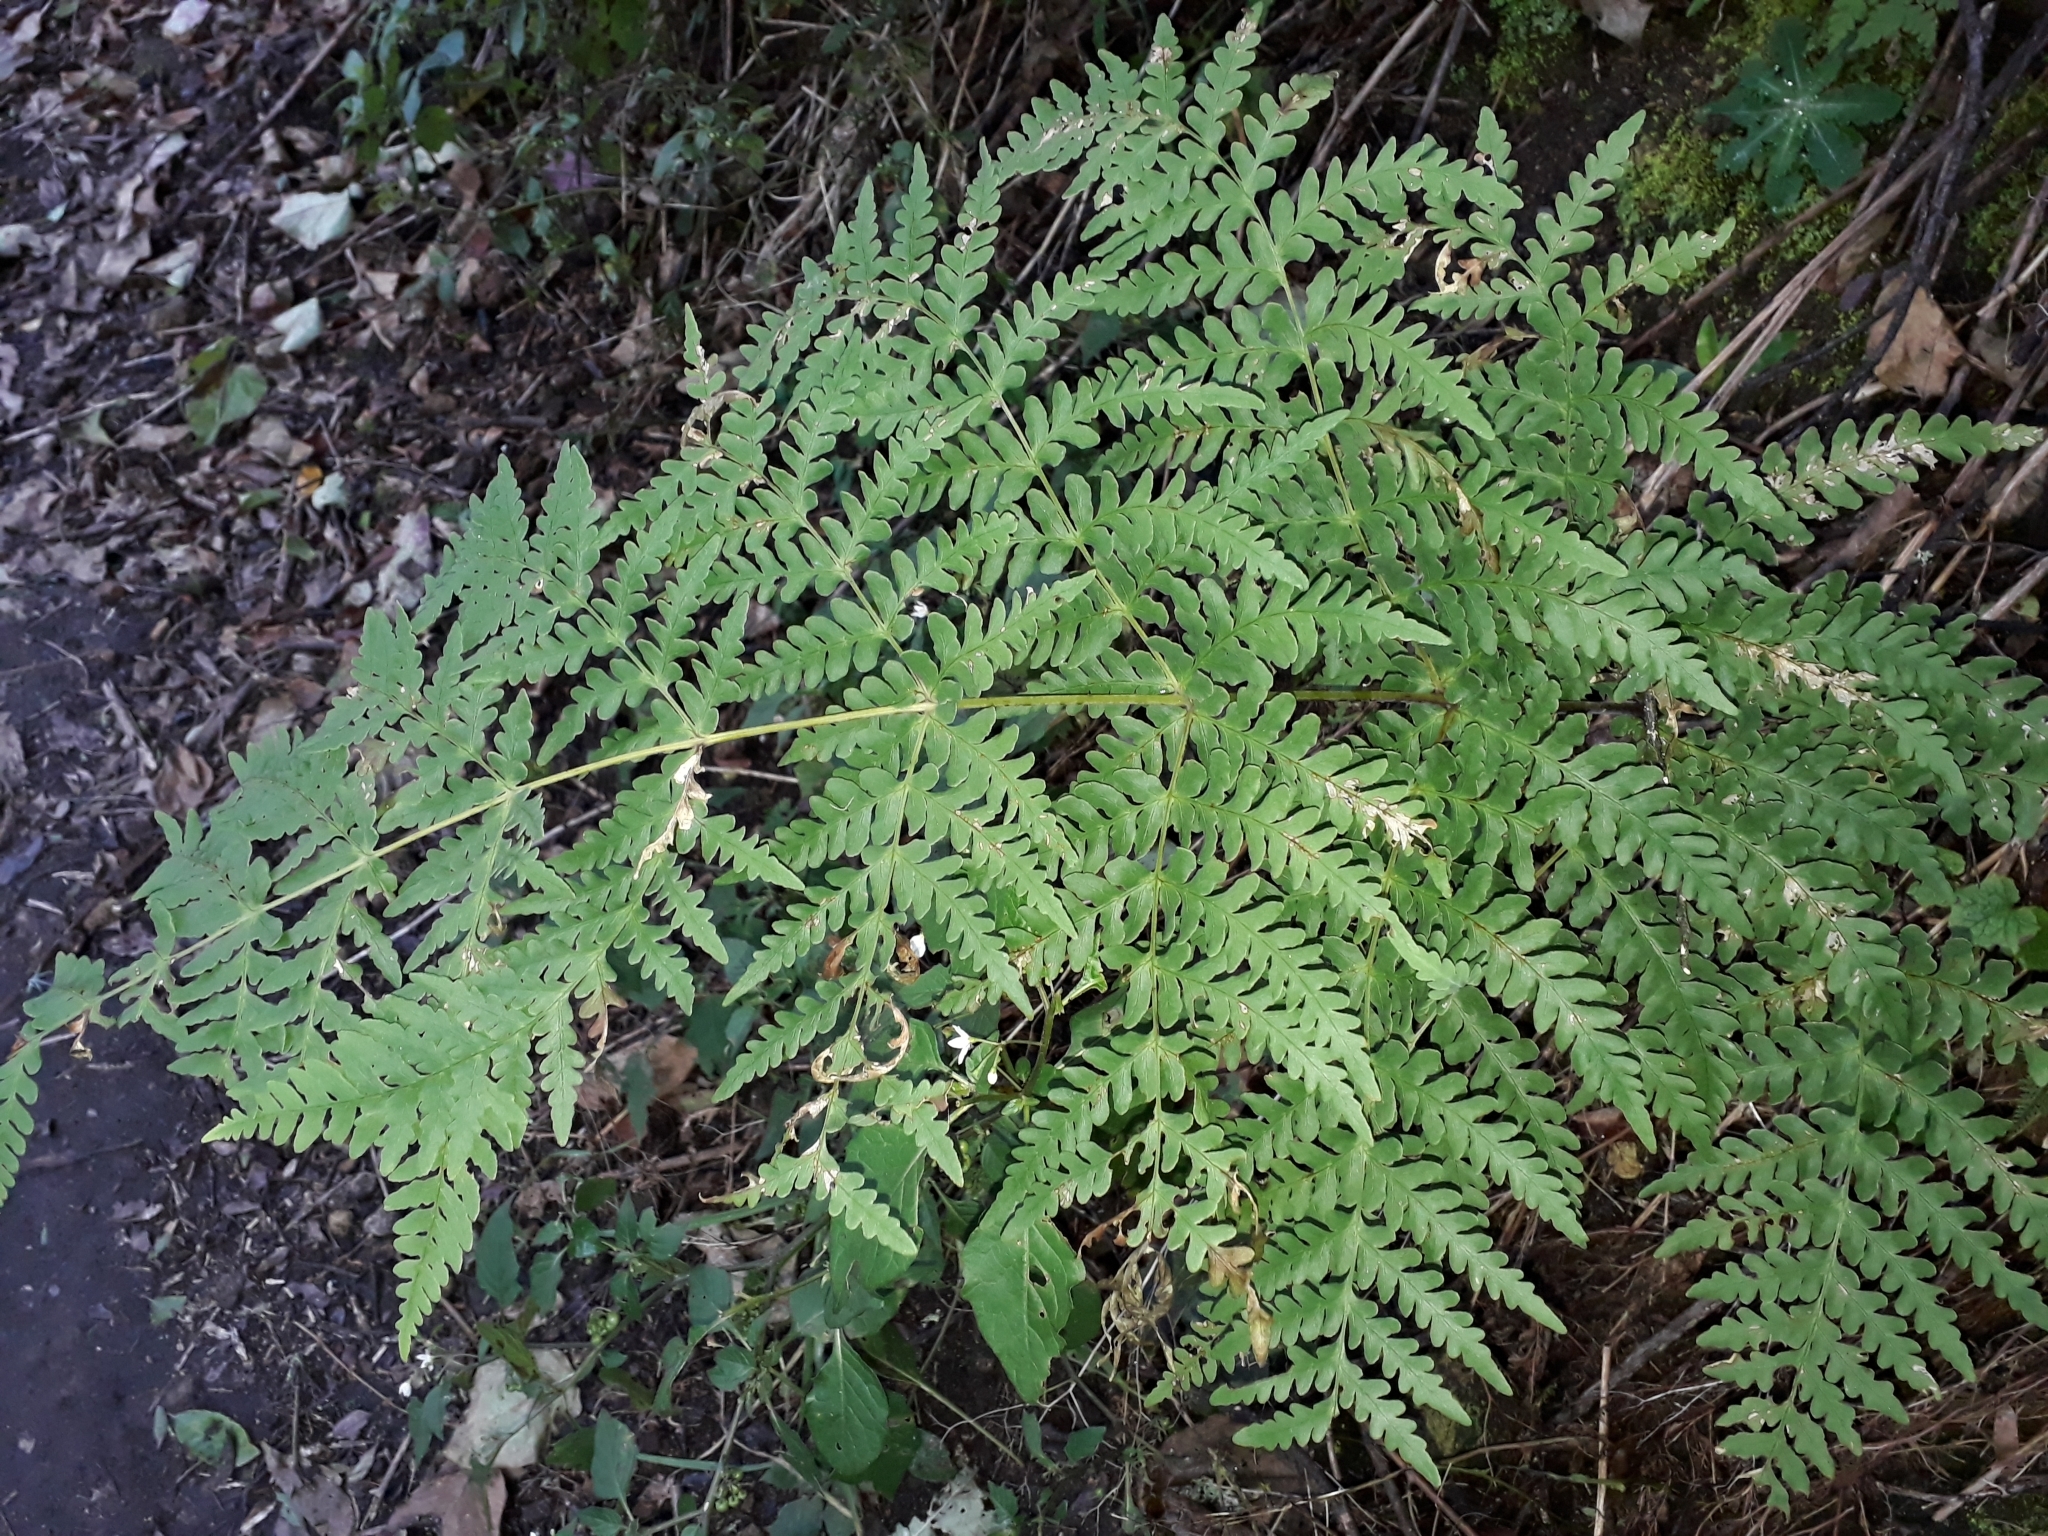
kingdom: Plantae
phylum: Tracheophyta
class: Polypodiopsida
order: Polypodiales
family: Dennstaedtiaceae
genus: Histiopteris
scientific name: Histiopteris incisa
